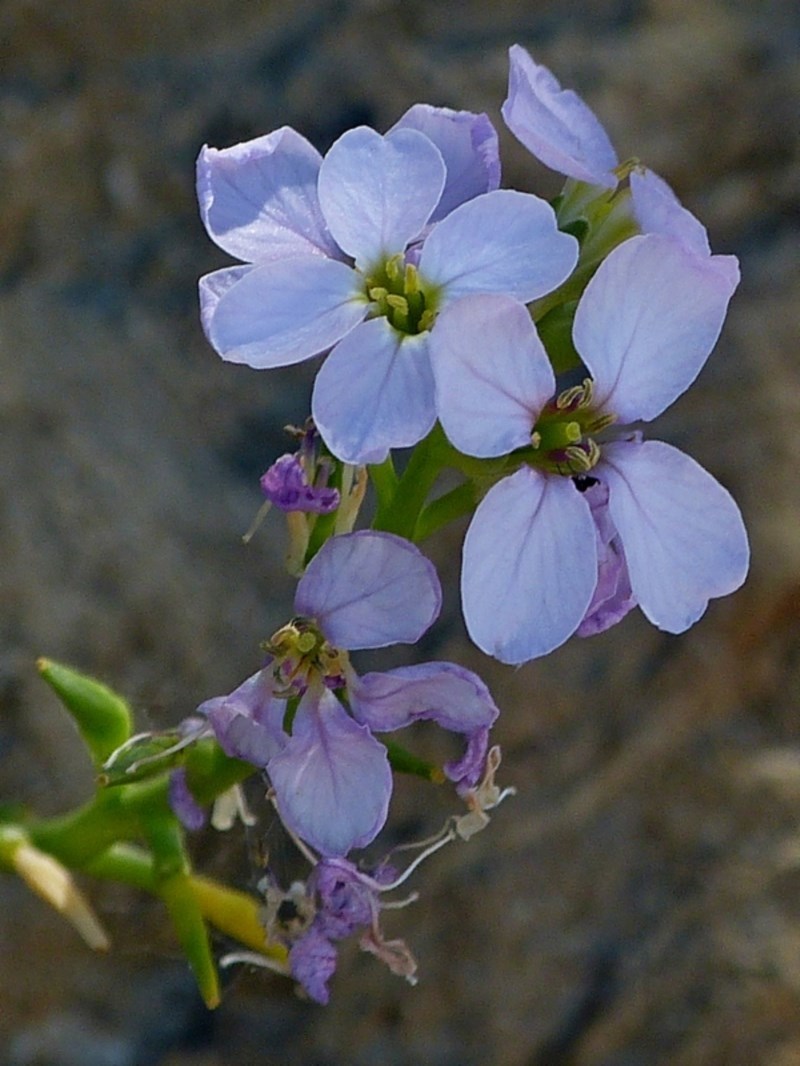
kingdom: Plantae
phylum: Tracheophyta
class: Magnoliopsida
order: Brassicales
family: Brassicaceae
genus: Cakile
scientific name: Cakile maritima
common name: Sea rocket
